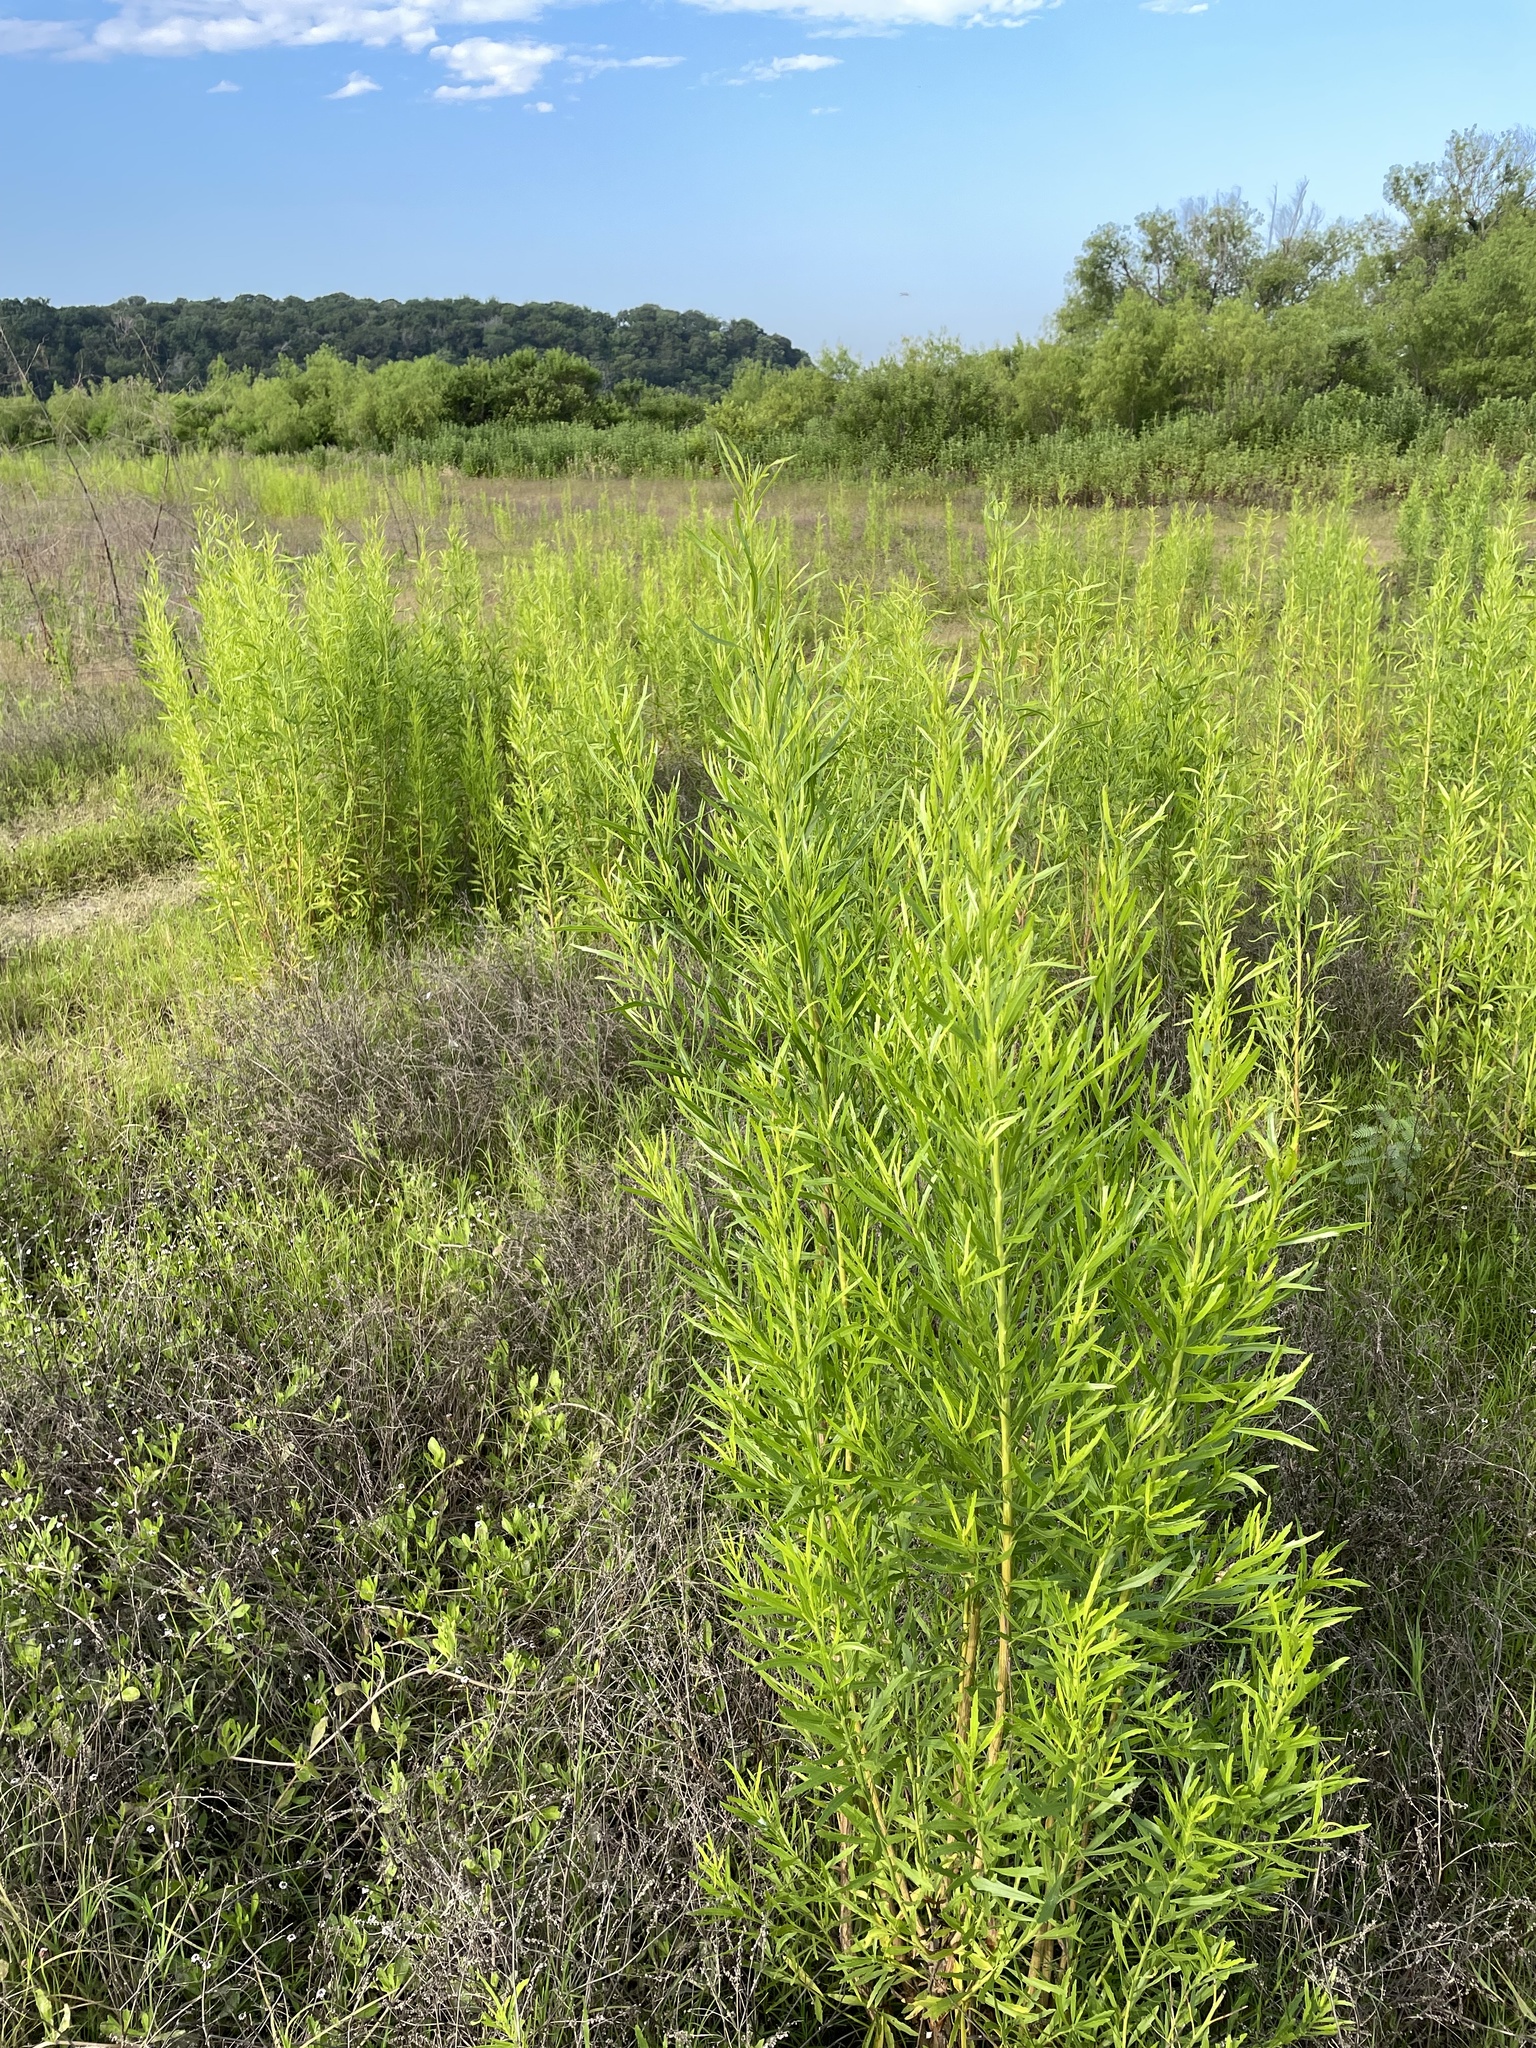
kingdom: Plantae
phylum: Tracheophyta
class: Magnoliopsida
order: Asterales
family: Asteraceae
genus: Baccharis
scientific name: Baccharis neglecta
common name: Roosevelt-weed
